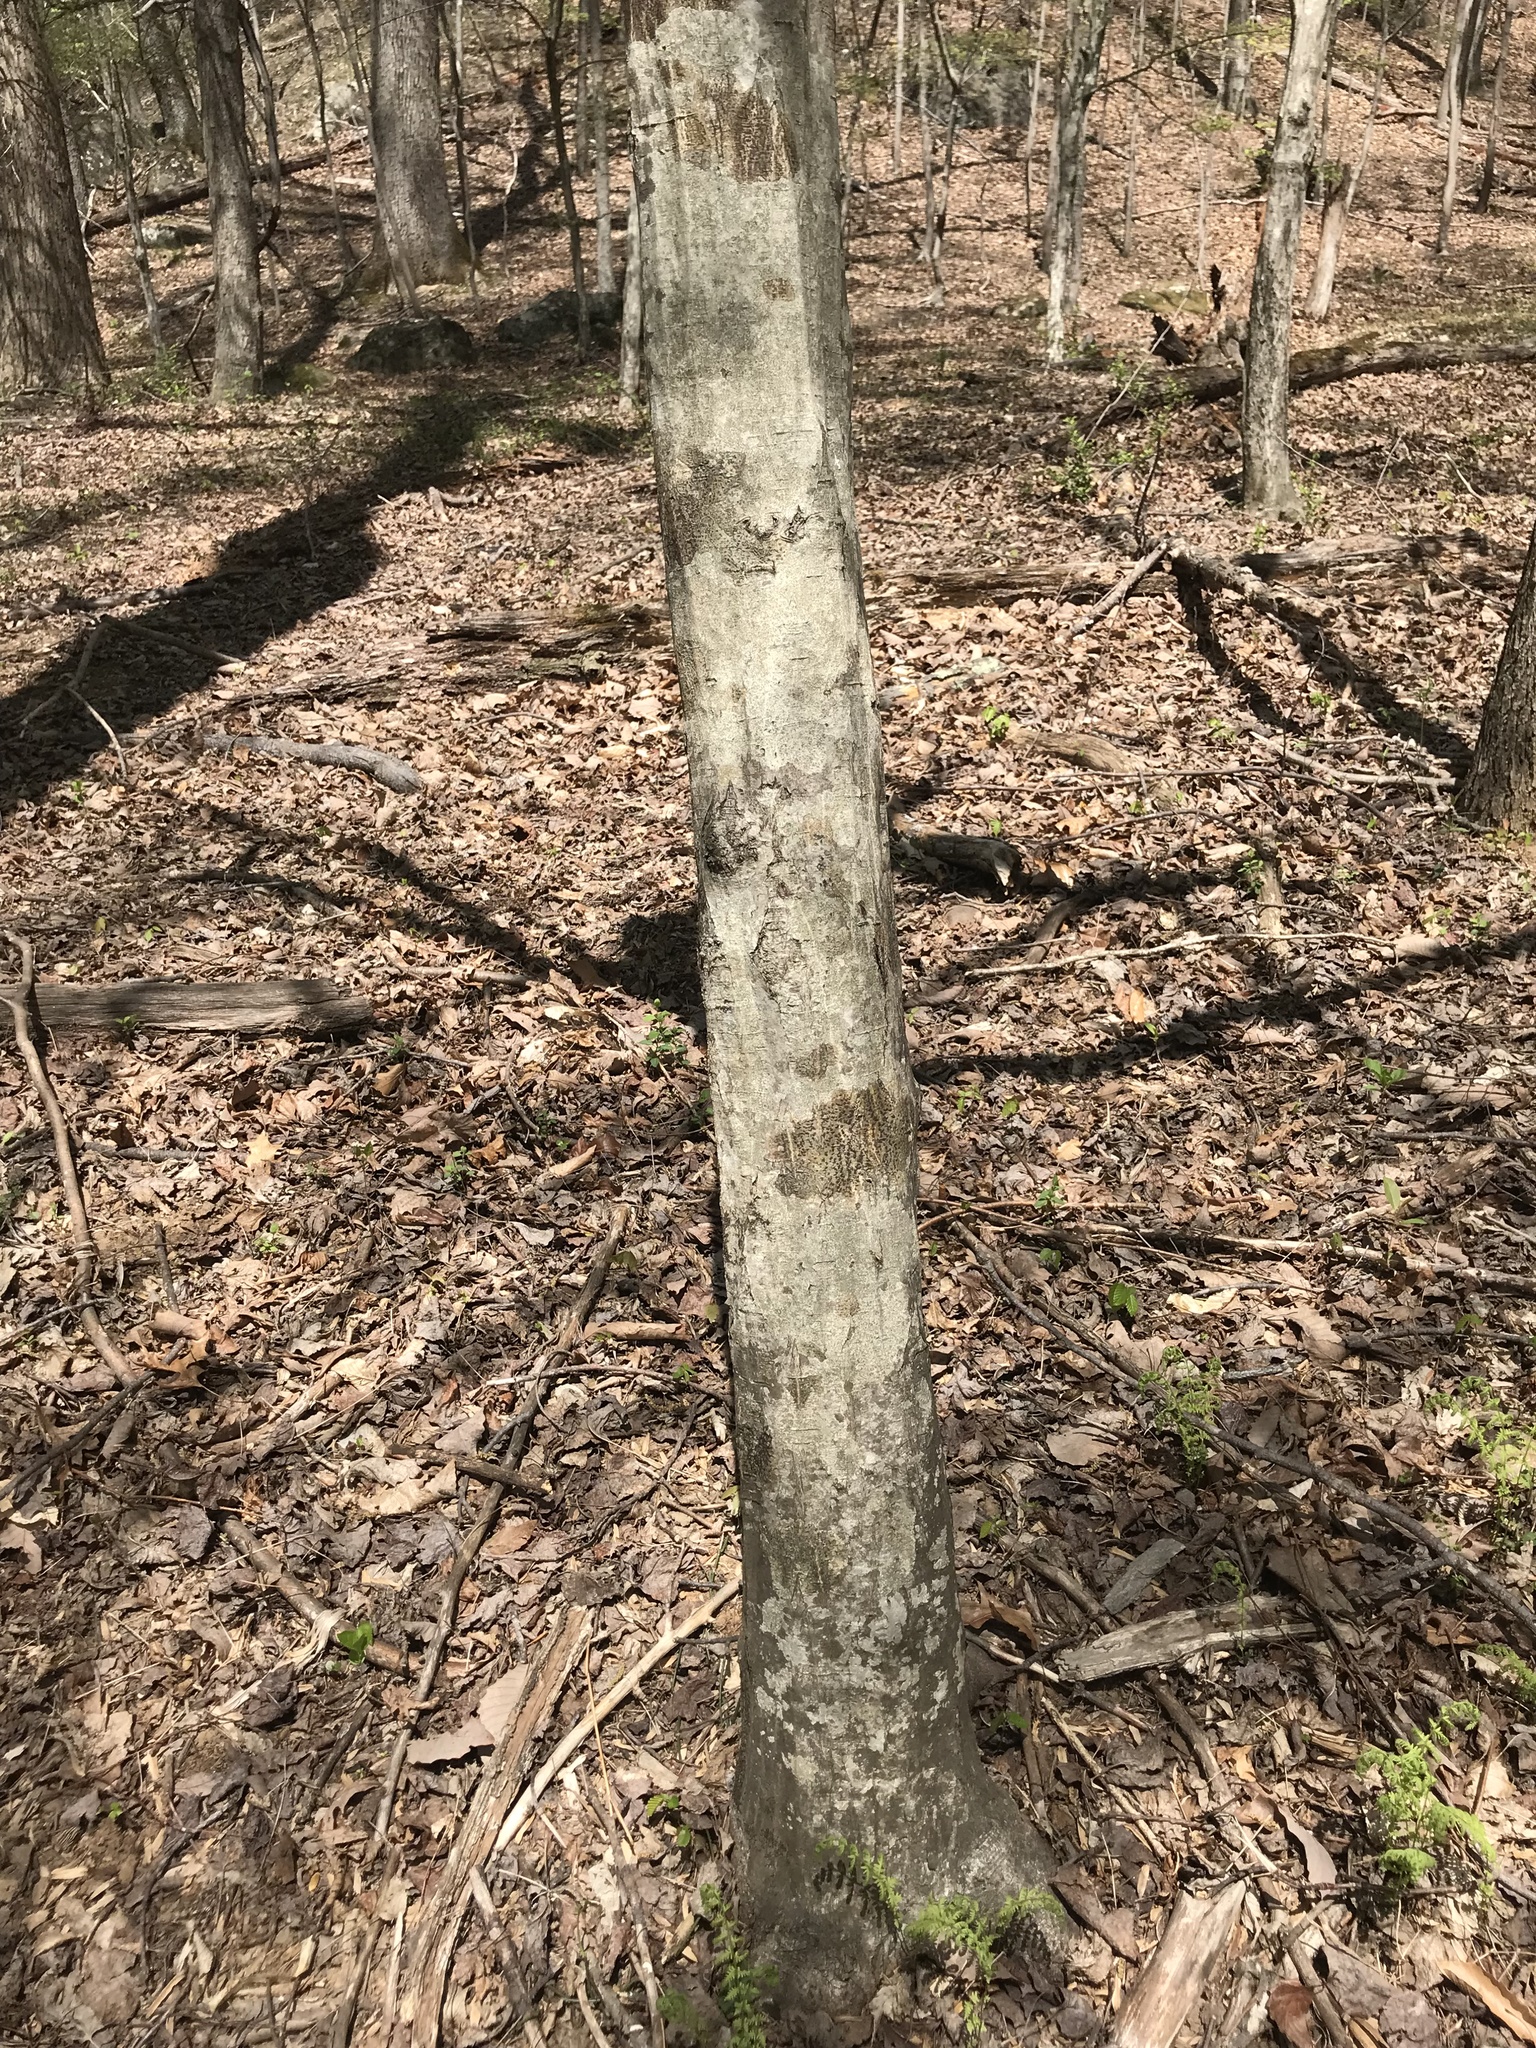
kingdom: Plantae
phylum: Tracheophyta
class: Magnoliopsida
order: Fagales
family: Betulaceae
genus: Carpinus
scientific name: Carpinus caroliniana
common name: American hornbeam
